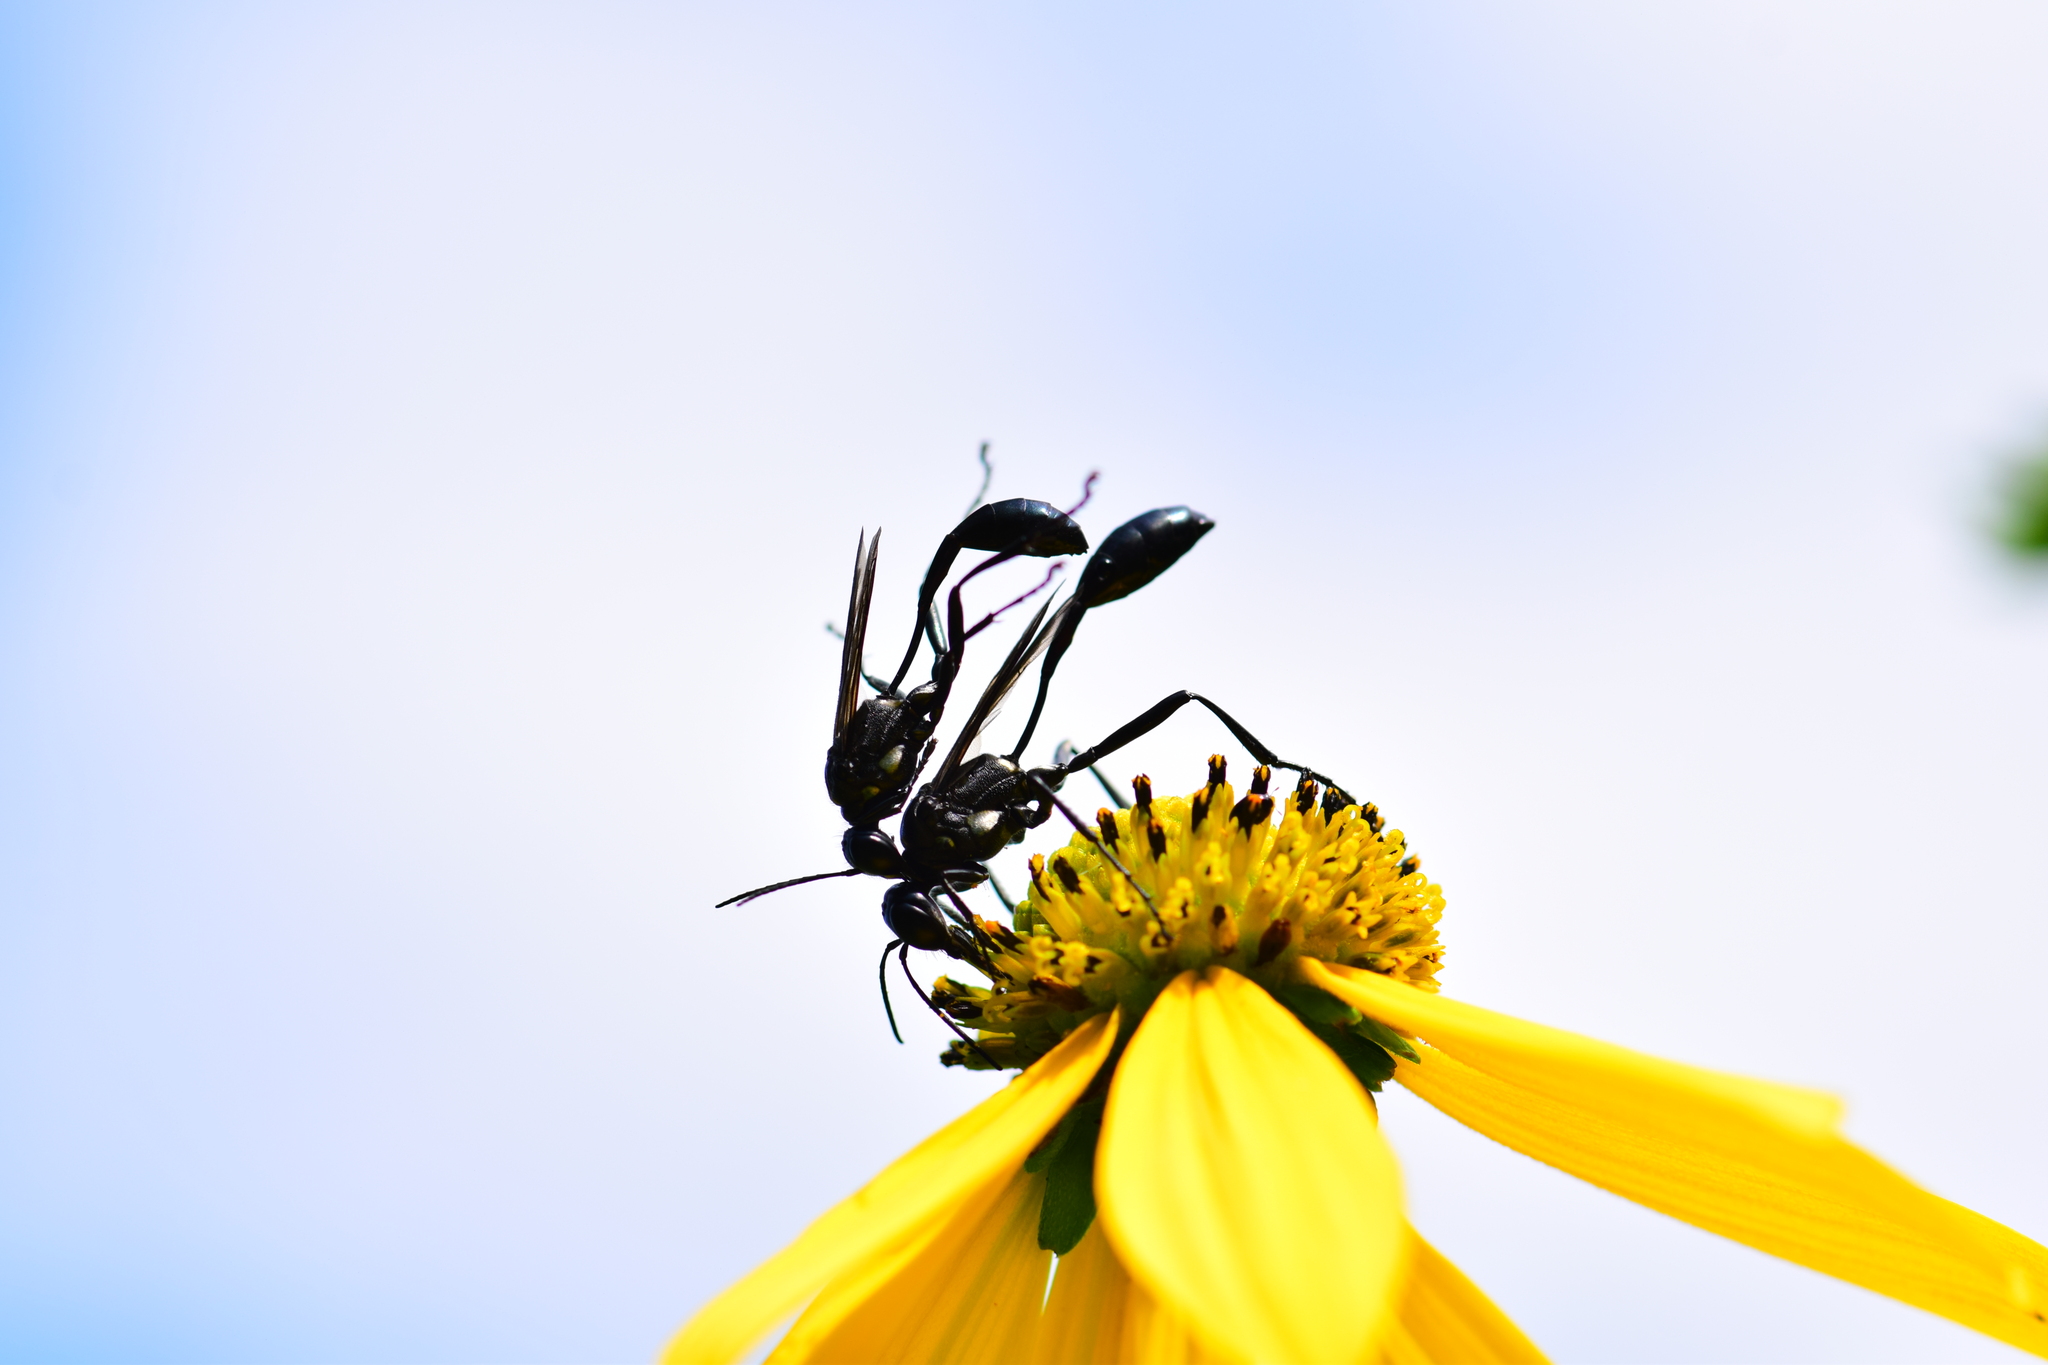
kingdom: Animalia
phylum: Arthropoda
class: Insecta
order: Hymenoptera
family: Sphecidae
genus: Eremnophila
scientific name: Eremnophila aureonotata
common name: Gold-marked thread-waisted wasp
